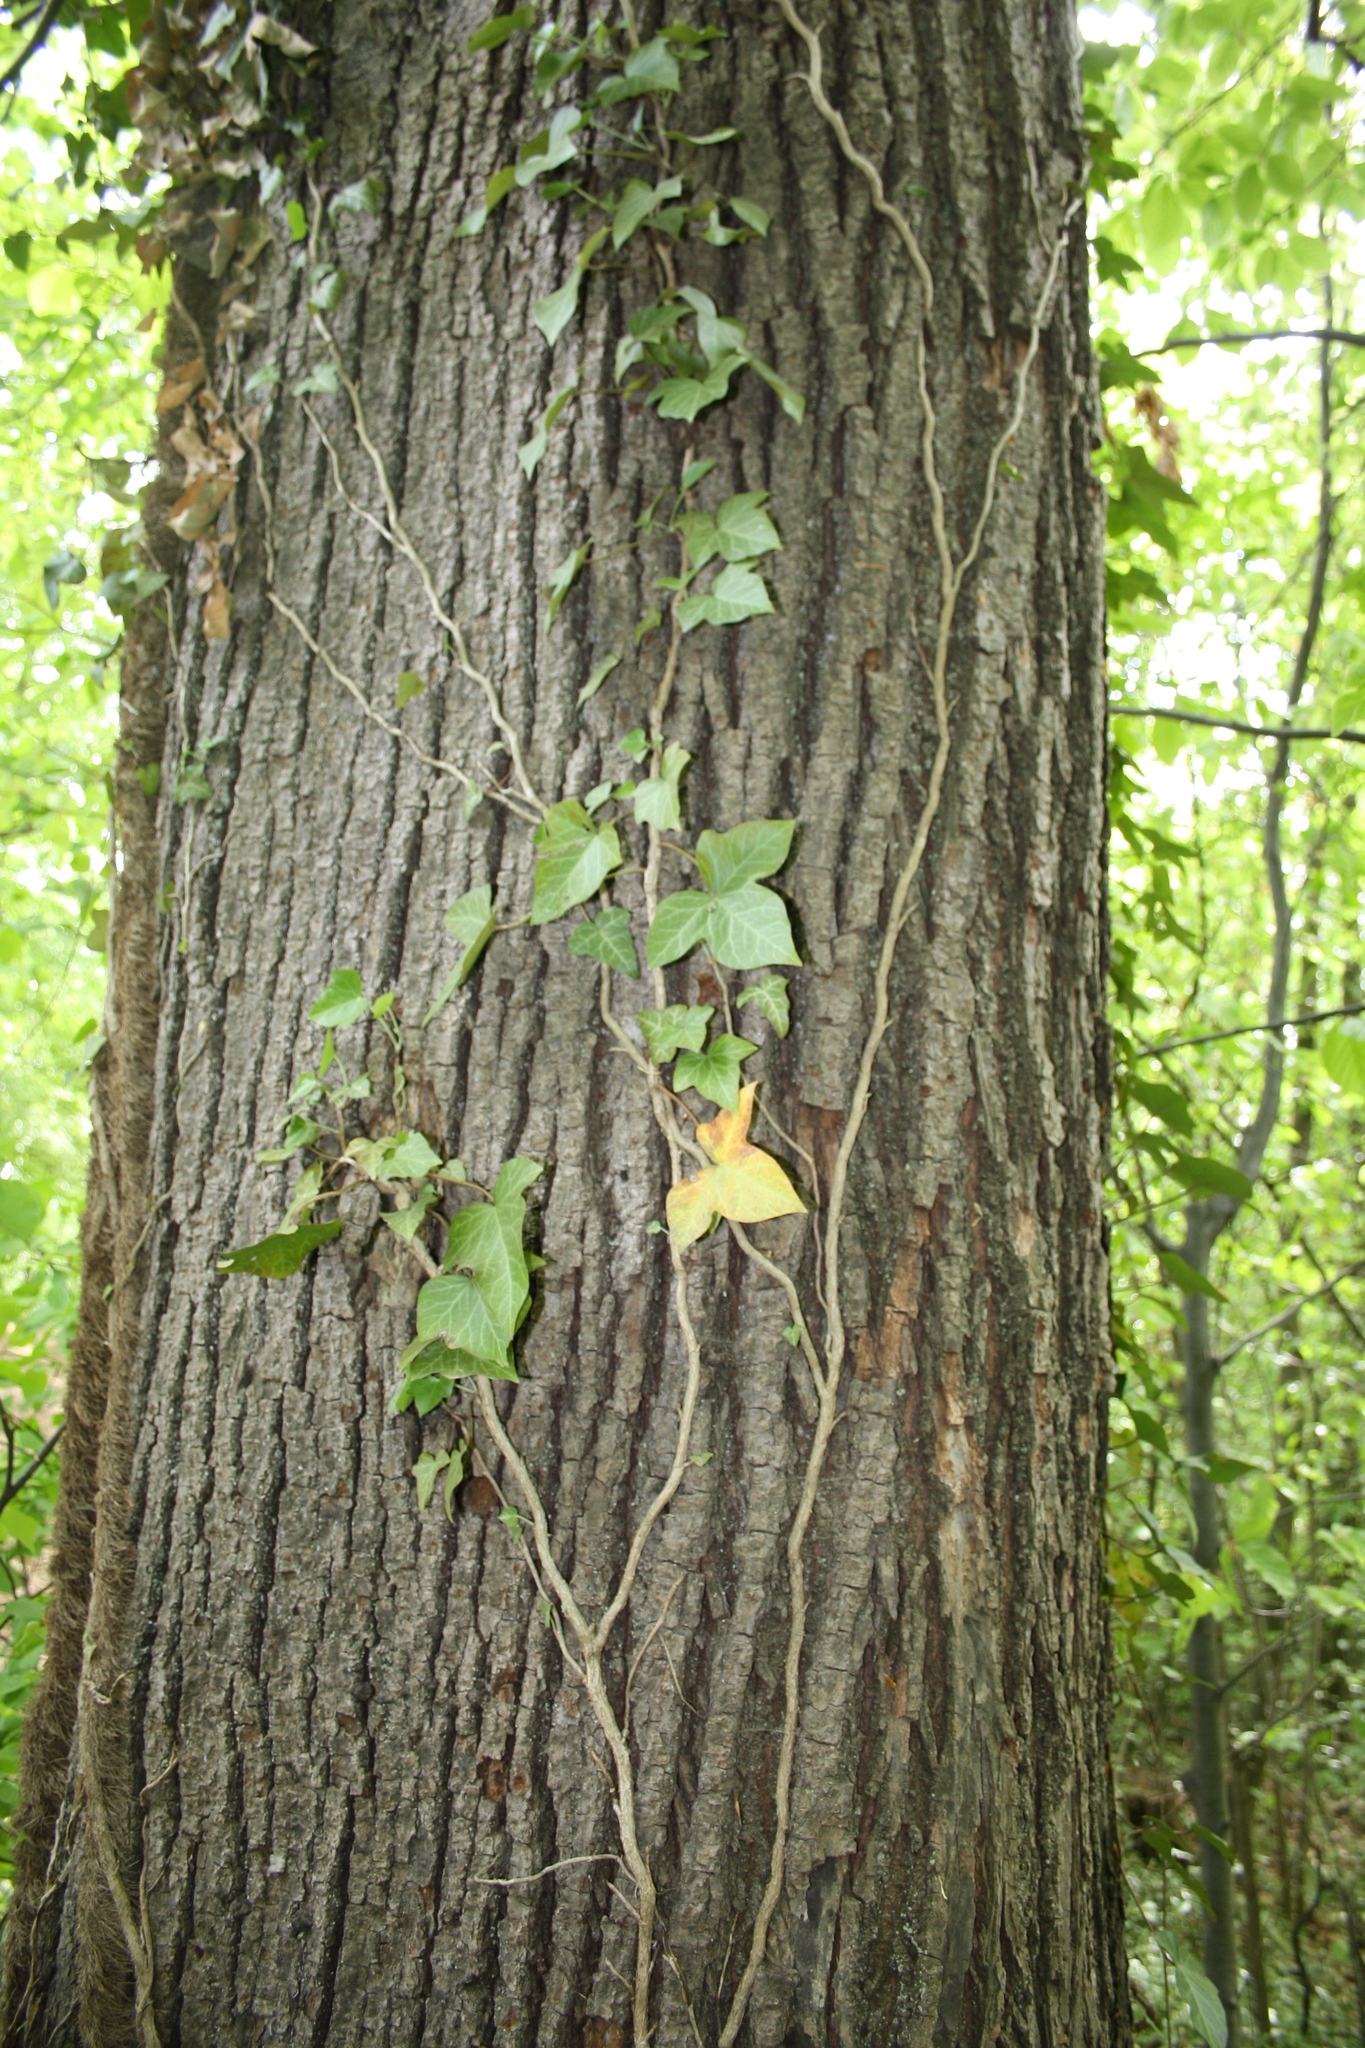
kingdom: Plantae
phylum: Tracheophyta
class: Magnoliopsida
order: Apiales
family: Araliaceae
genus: Hedera
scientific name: Hedera helix
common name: Ivy
